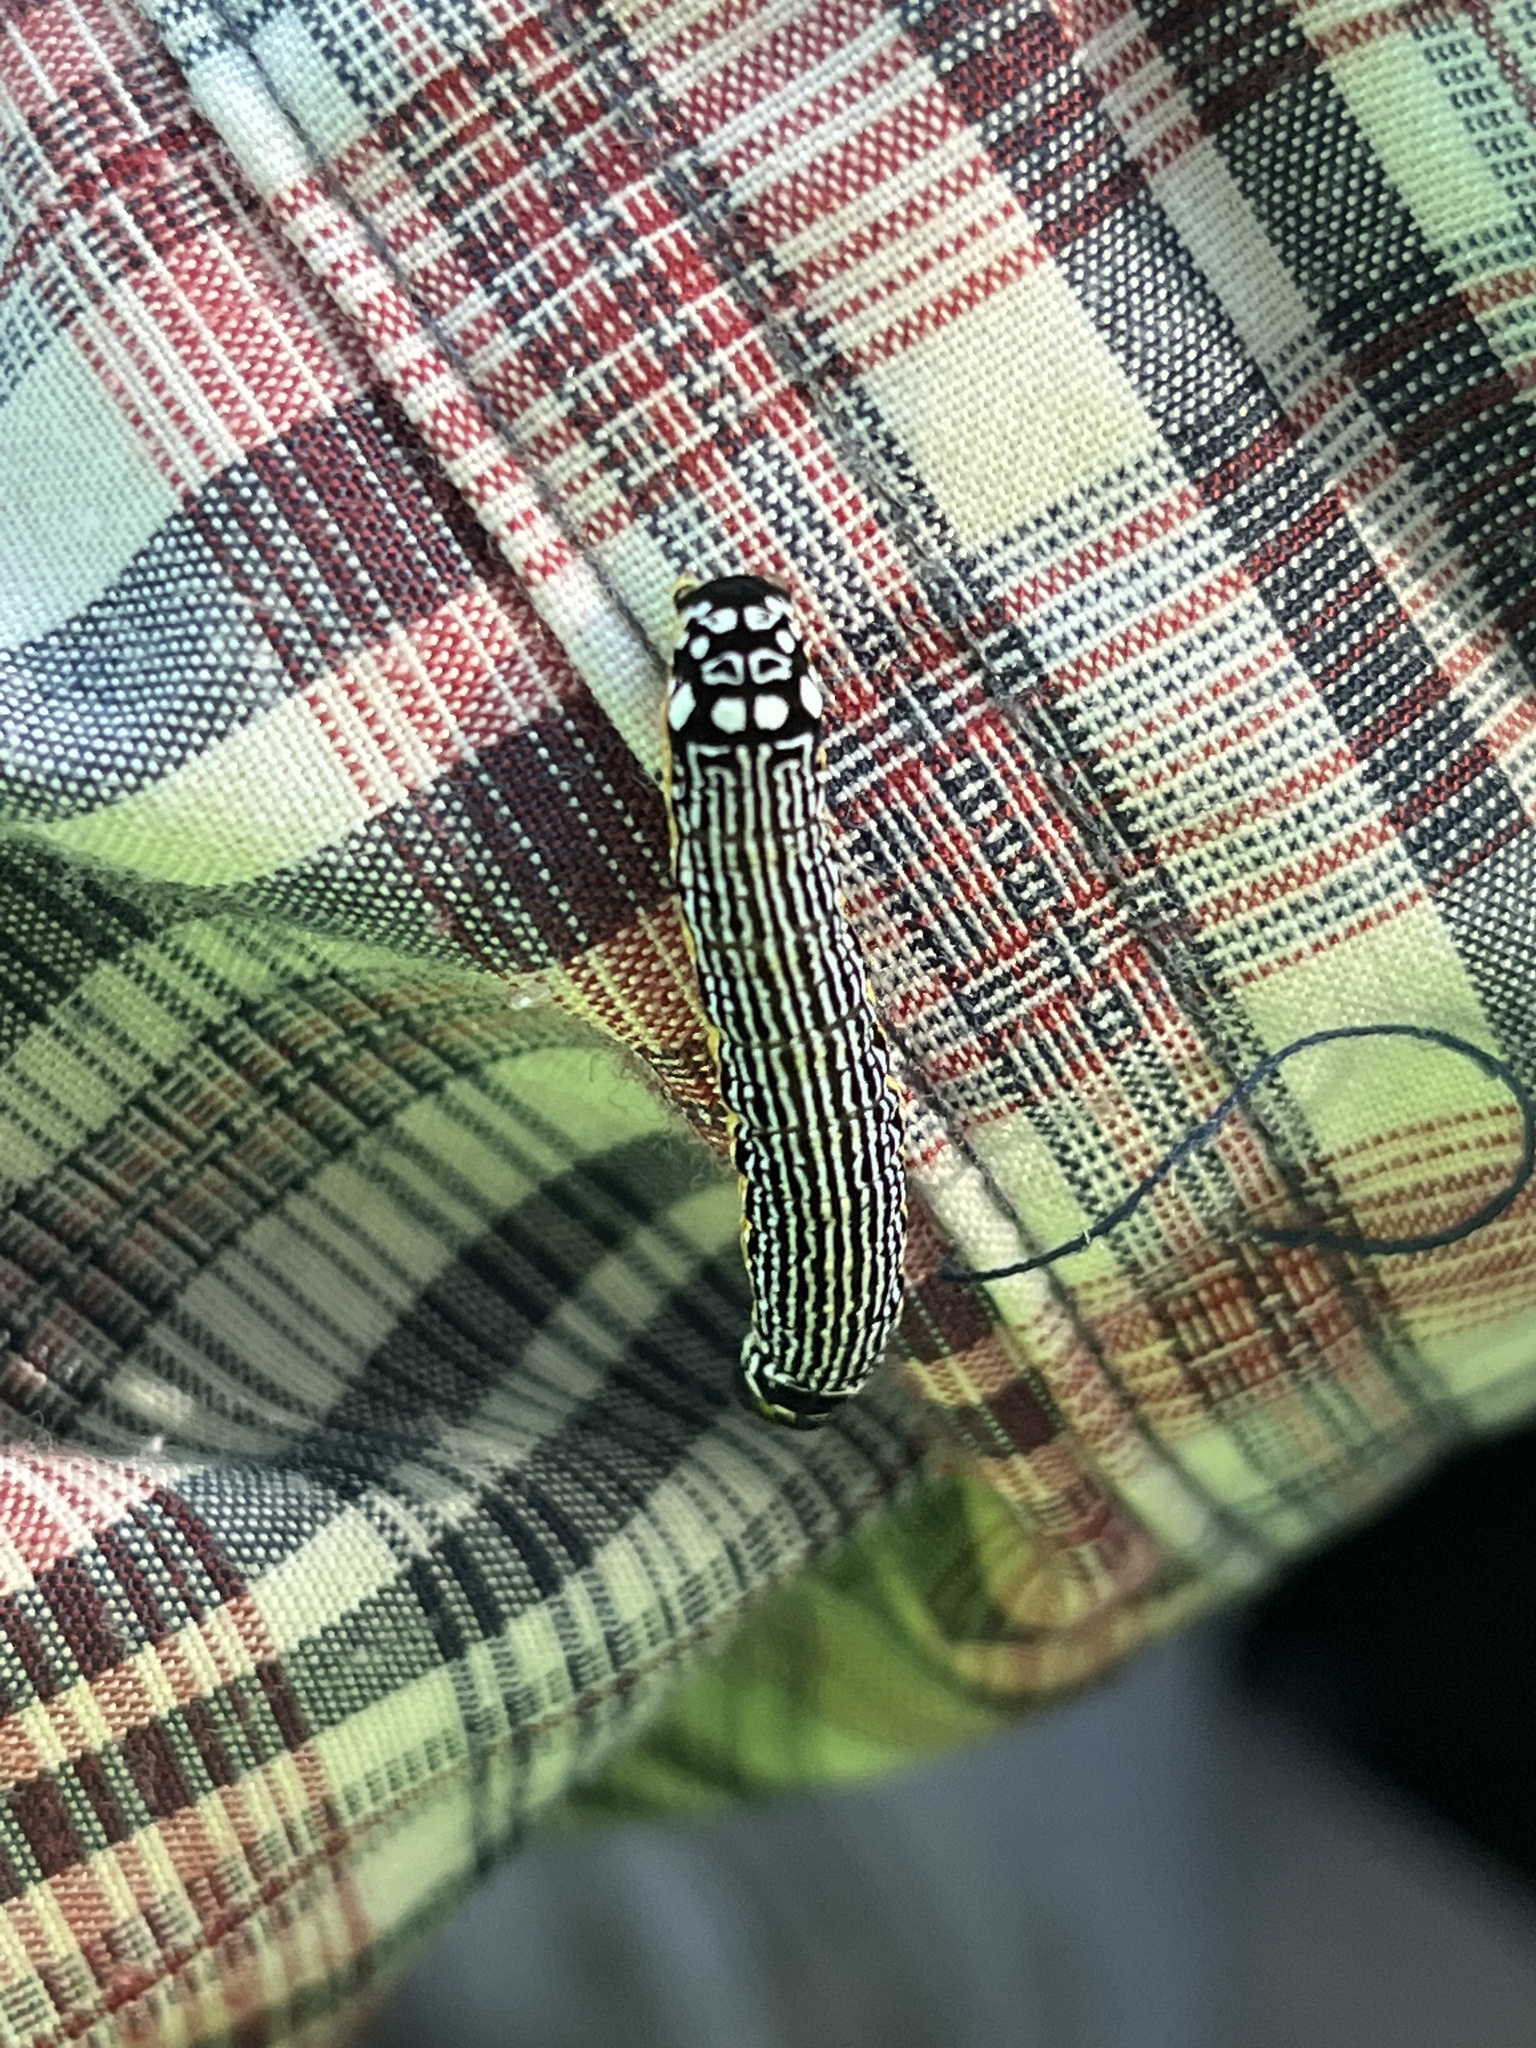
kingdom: Animalia
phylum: Arthropoda
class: Insecta
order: Lepidoptera
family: Noctuidae
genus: Phosphila
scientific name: Phosphila turbulenta
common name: Turbulent phosphila moth
